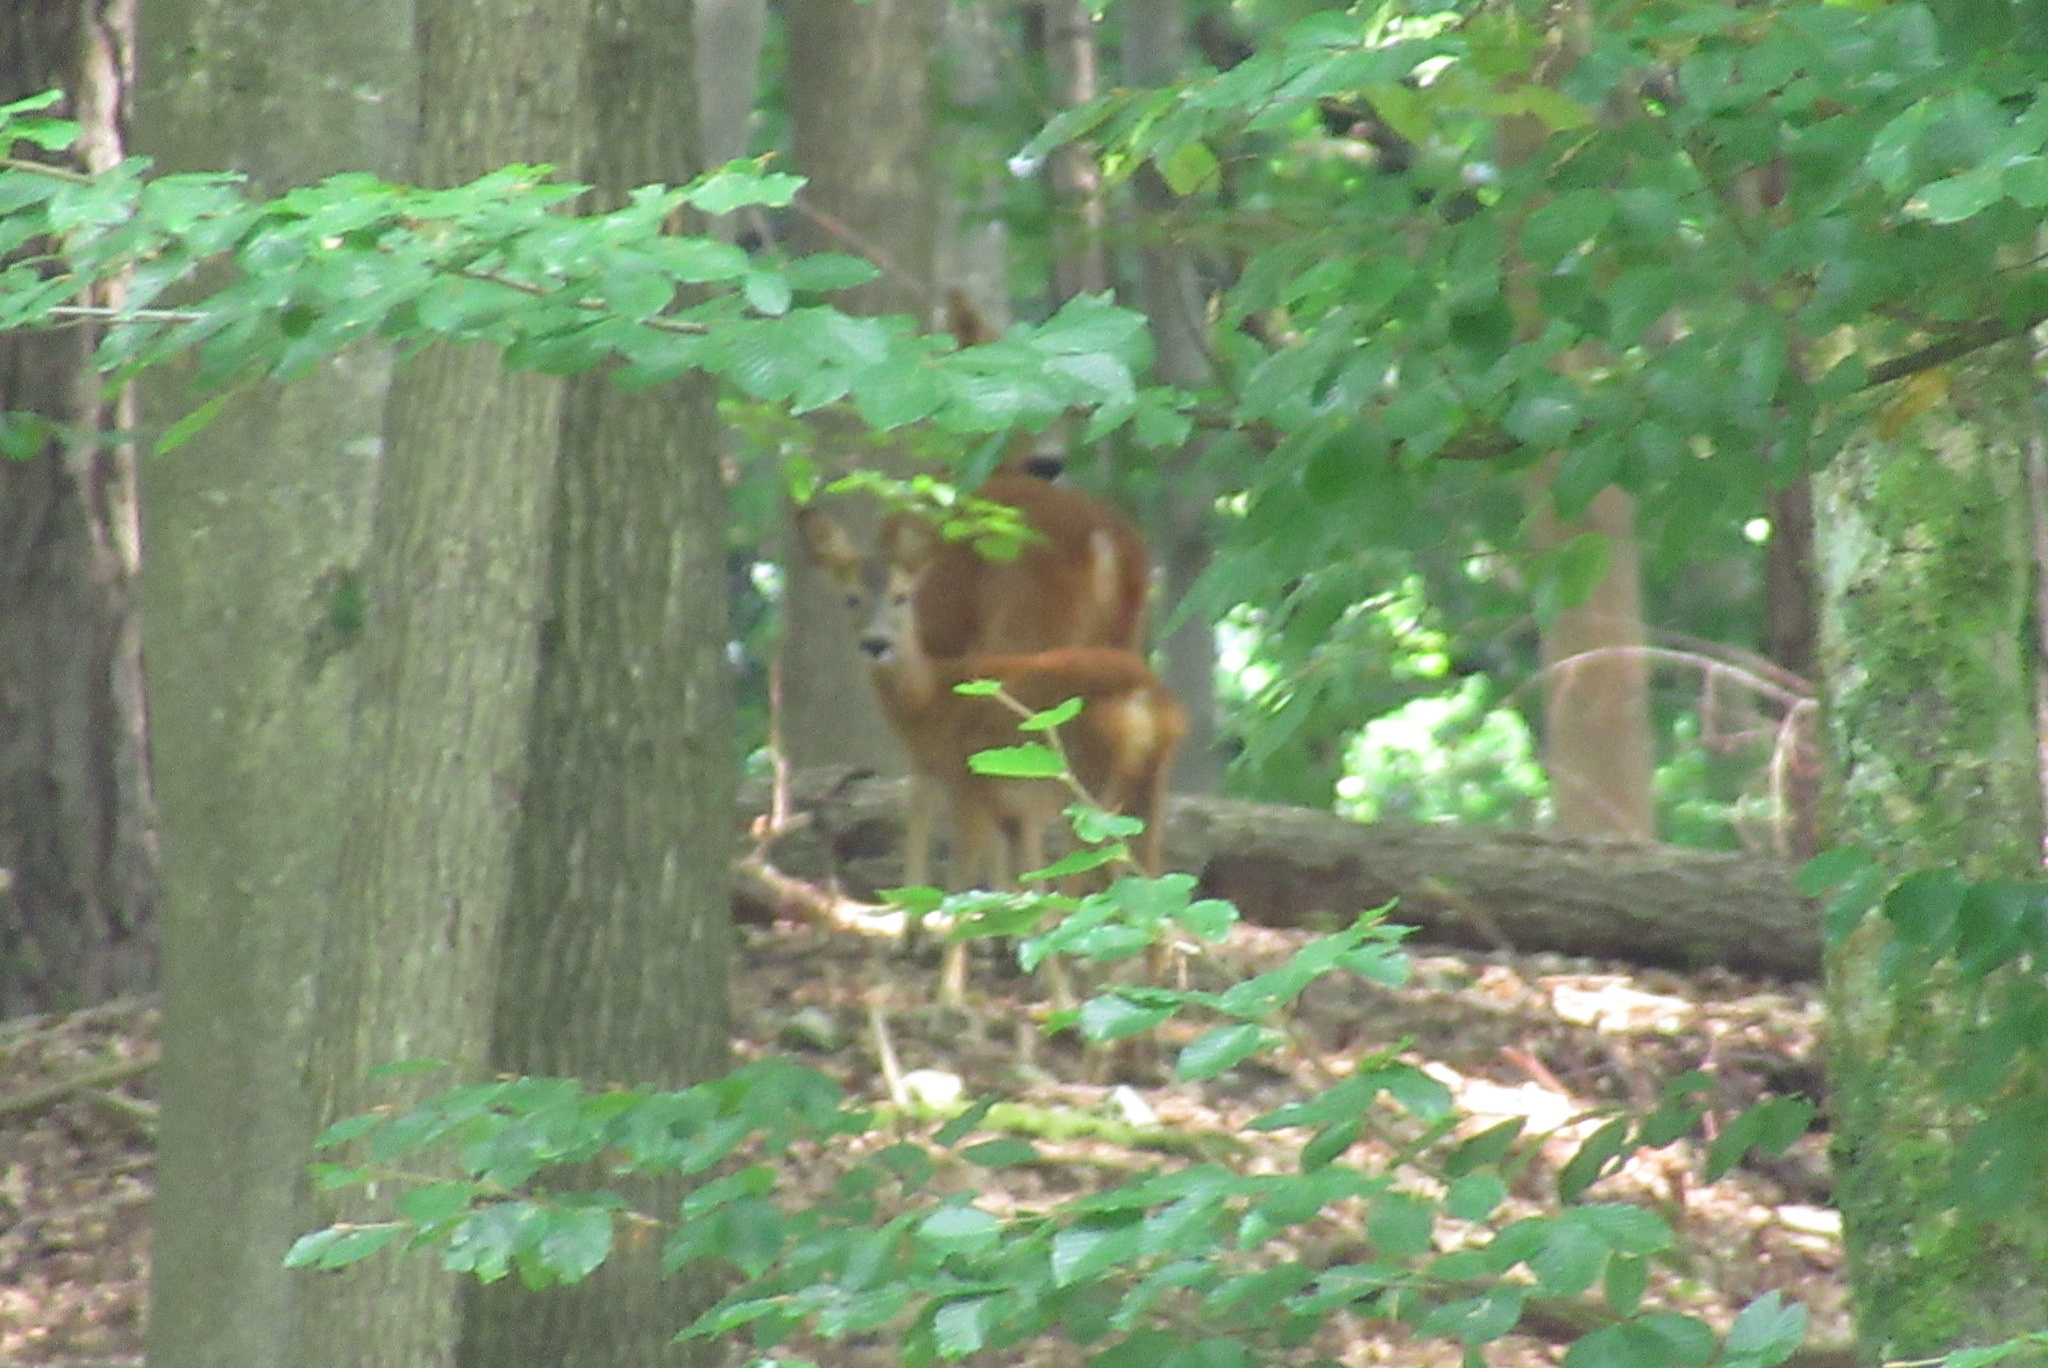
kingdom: Animalia
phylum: Chordata
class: Mammalia
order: Artiodactyla
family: Cervidae
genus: Capreolus
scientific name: Capreolus capreolus
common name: Western roe deer
